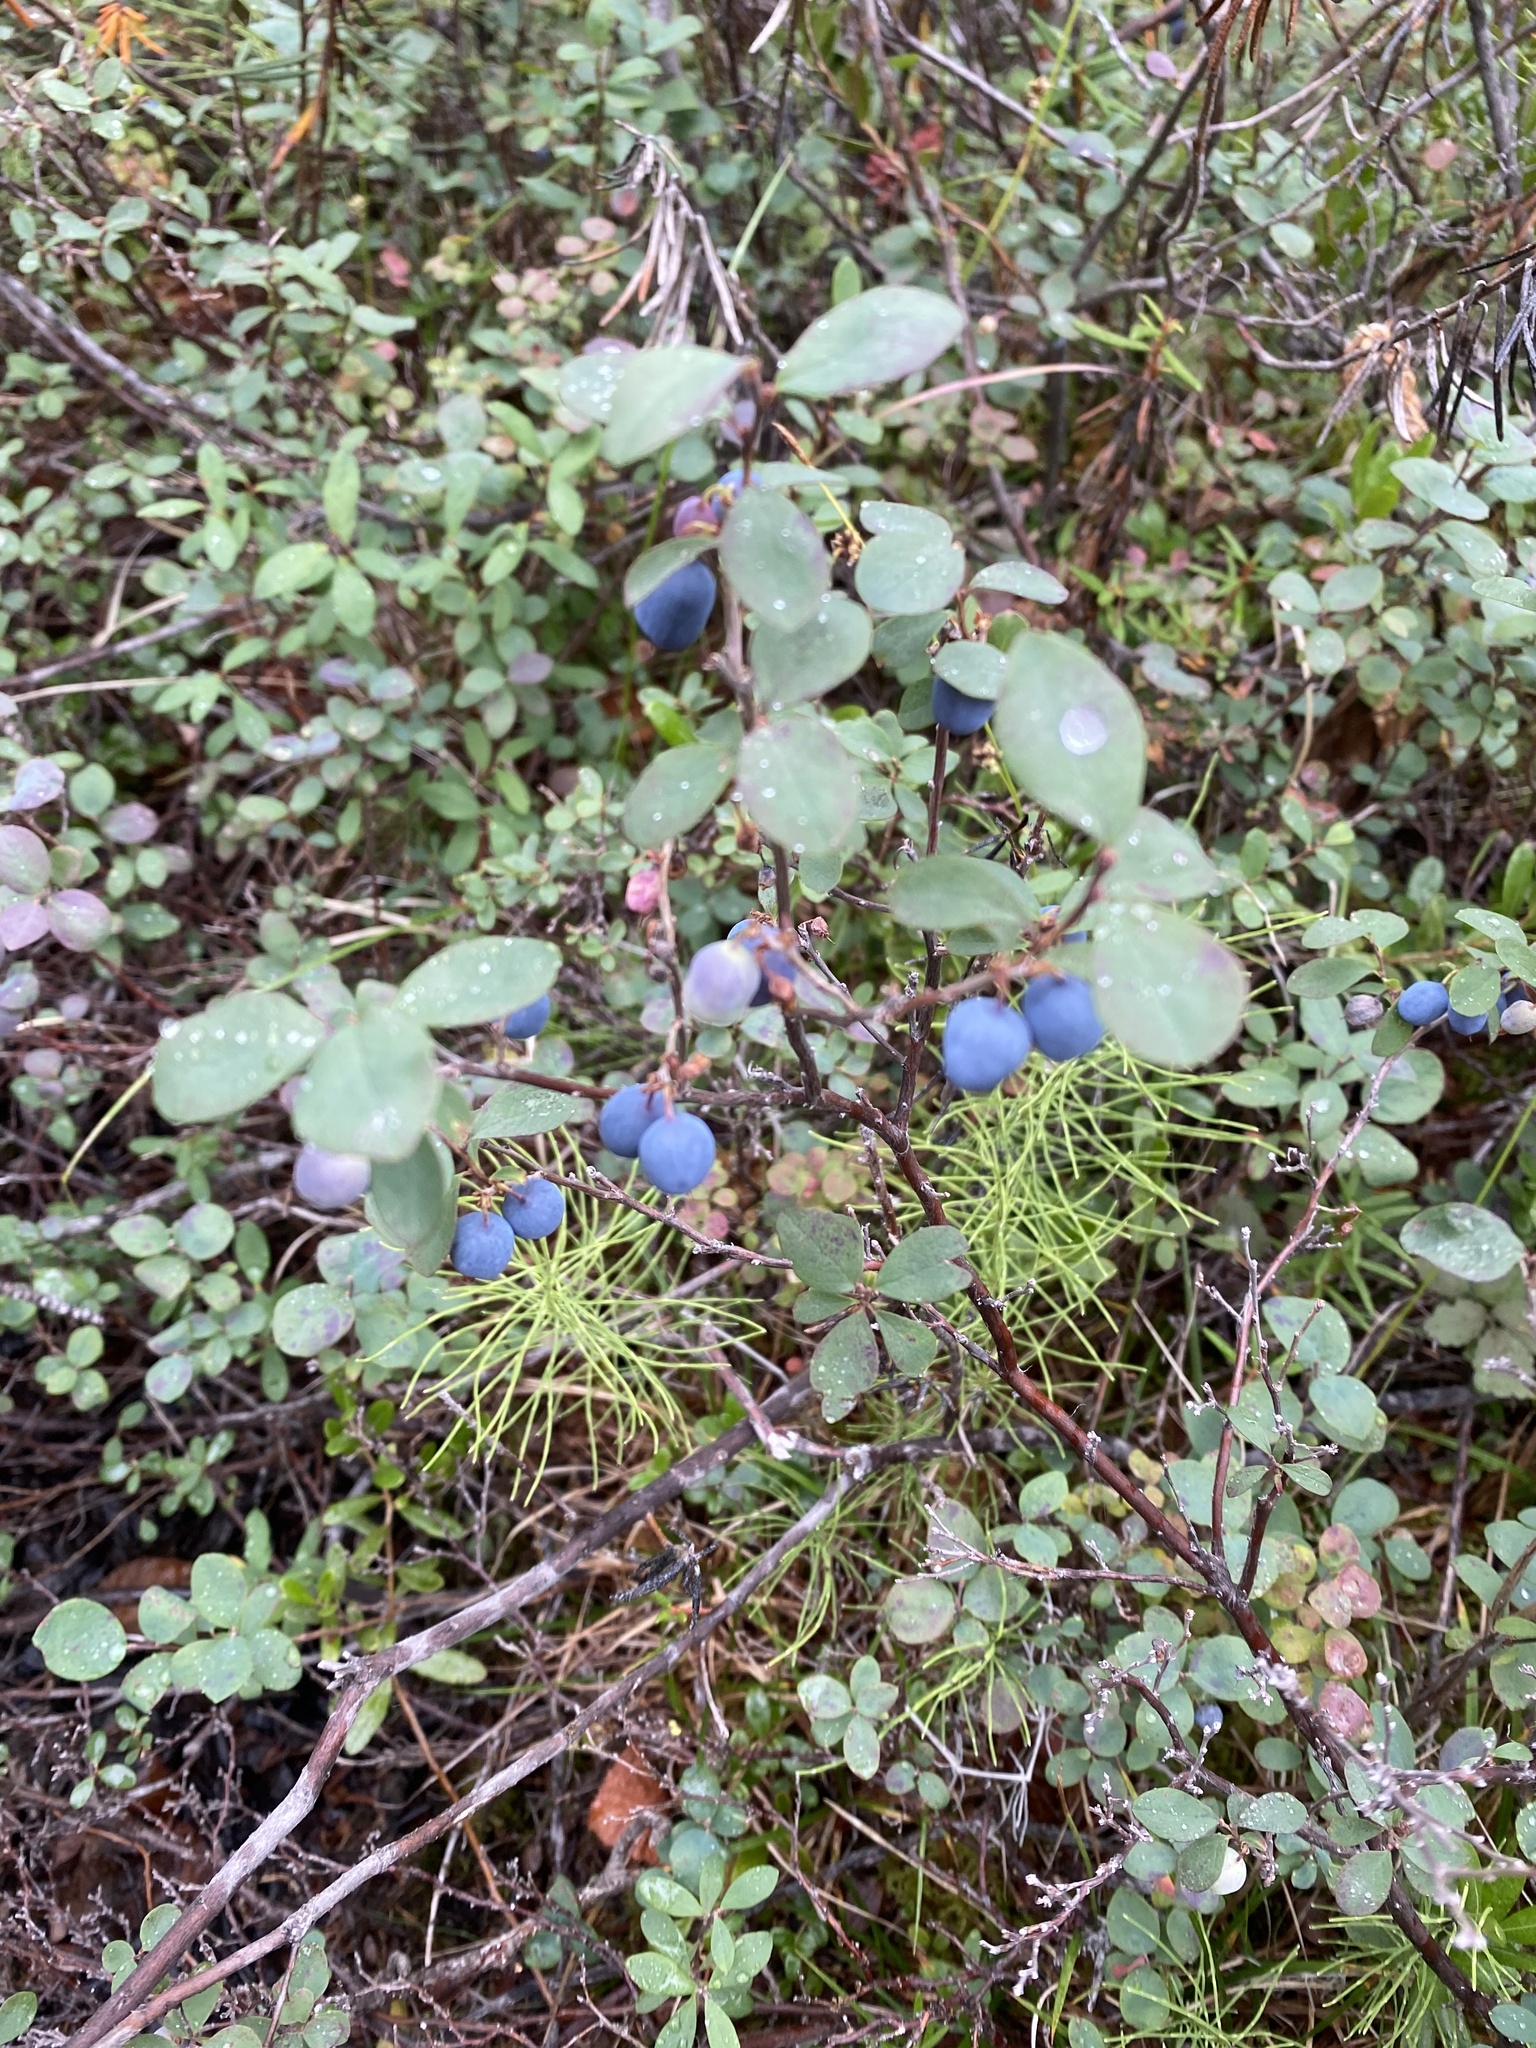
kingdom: Plantae
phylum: Tracheophyta
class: Magnoliopsida
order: Ericales
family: Ericaceae
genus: Vaccinium
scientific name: Vaccinium uliginosum
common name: Bog bilberry
